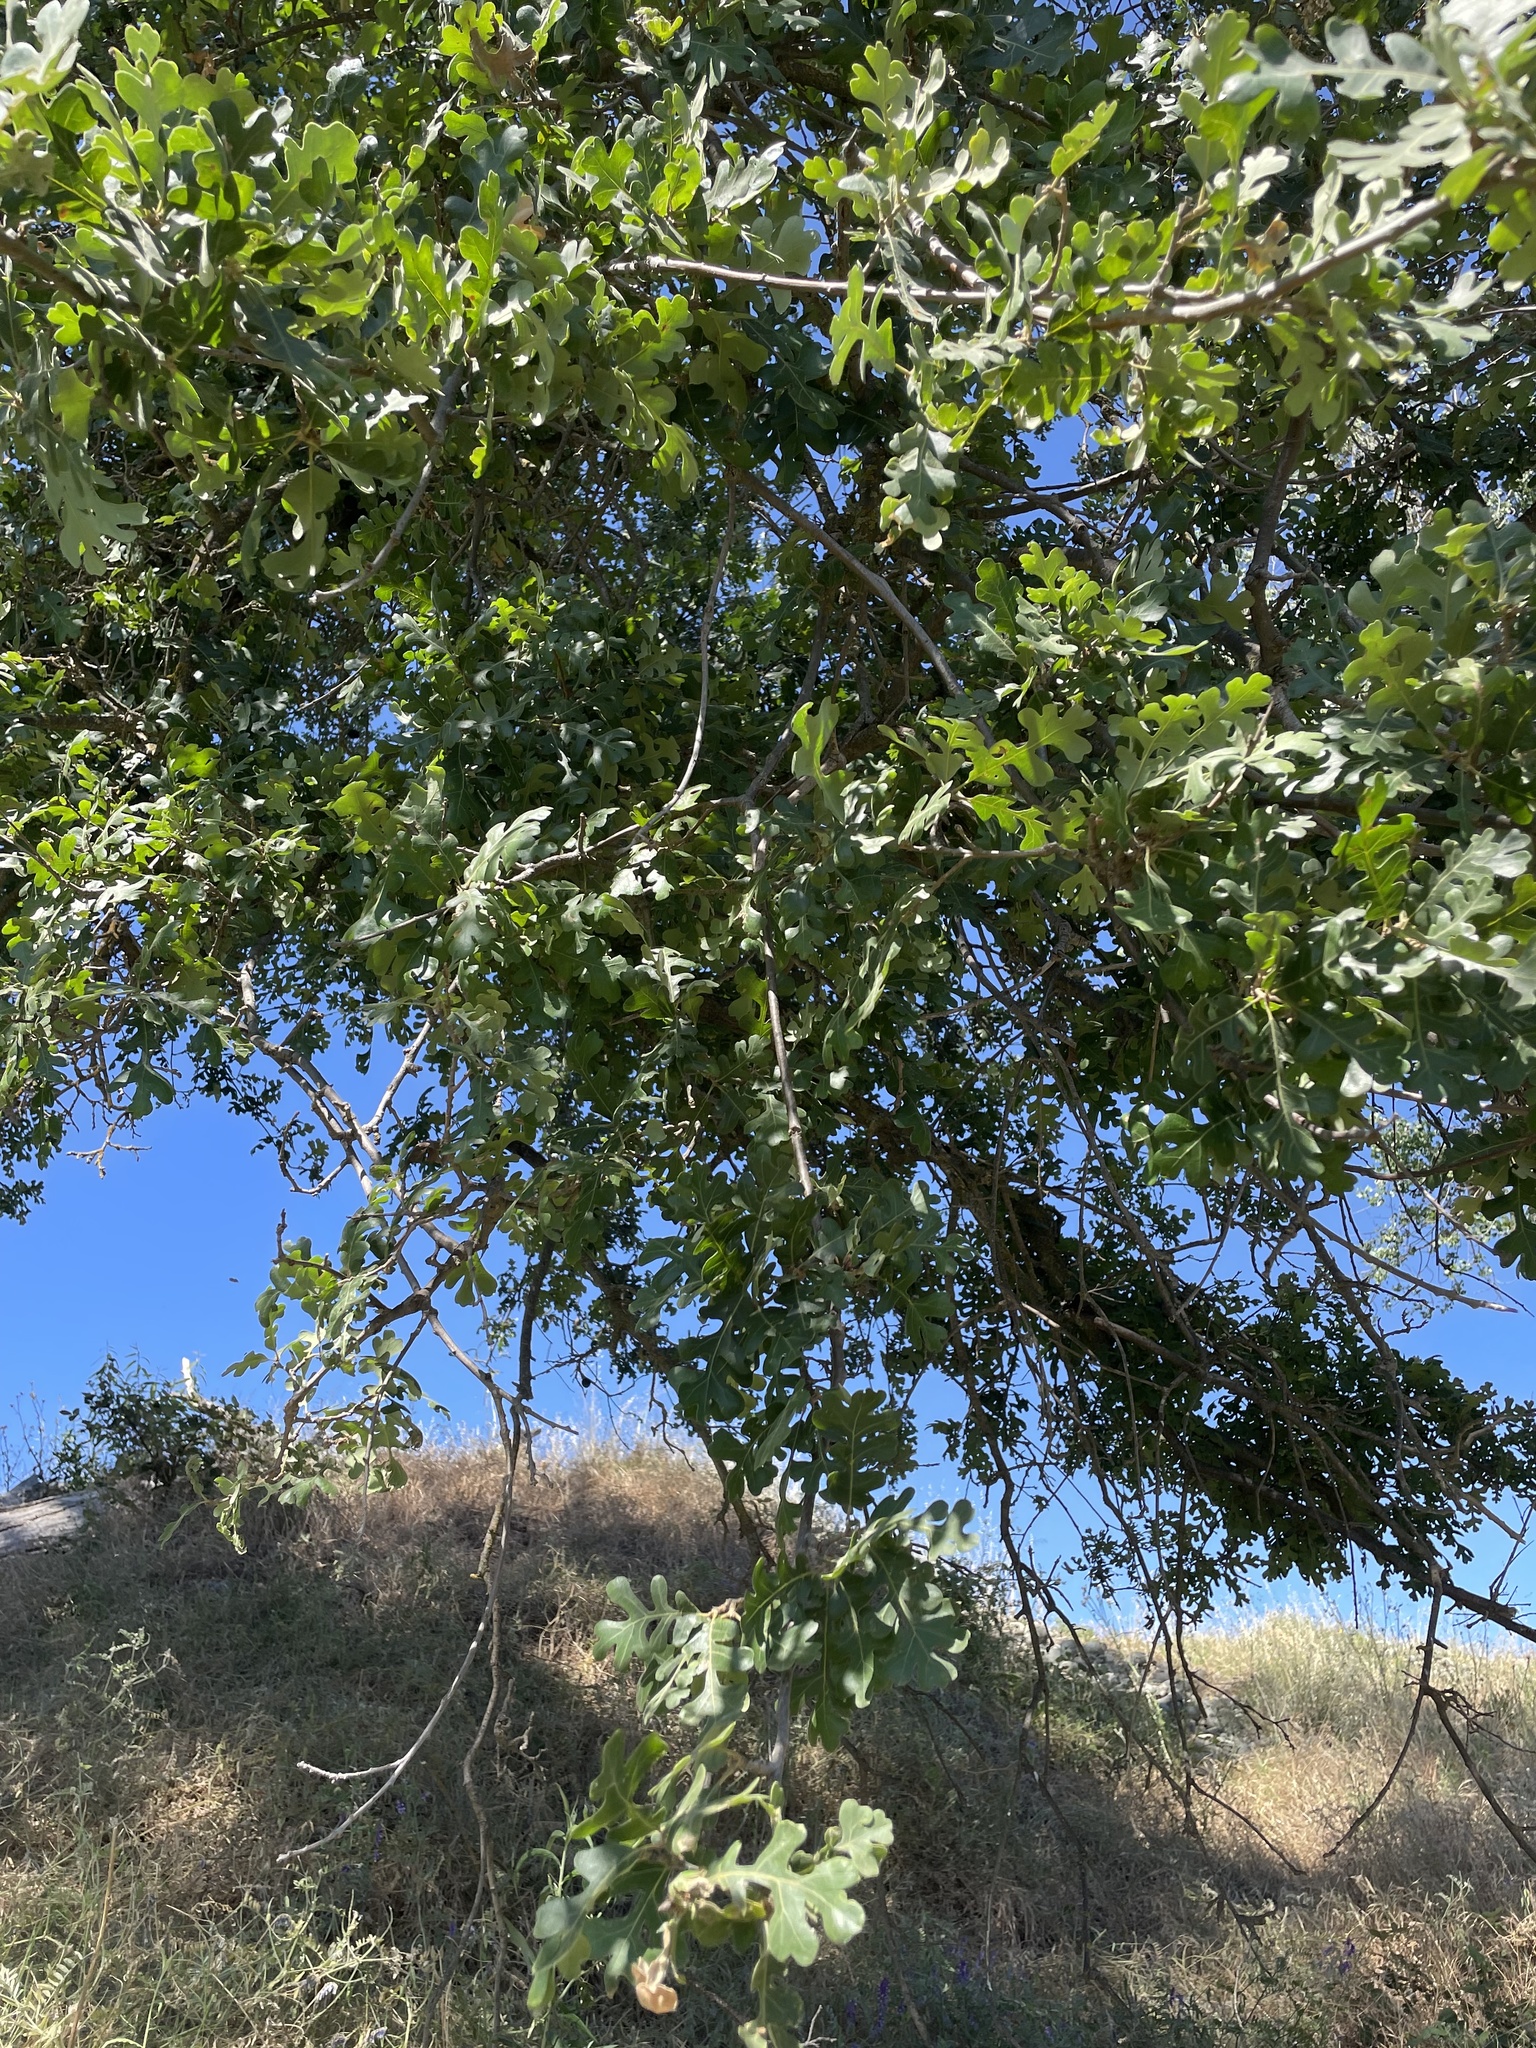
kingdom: Plantae
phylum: Tracheophyta
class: Magnoliopsida
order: Fagales
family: Fagaceae
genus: Quercus
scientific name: Quercus lobata
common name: Valley oak
